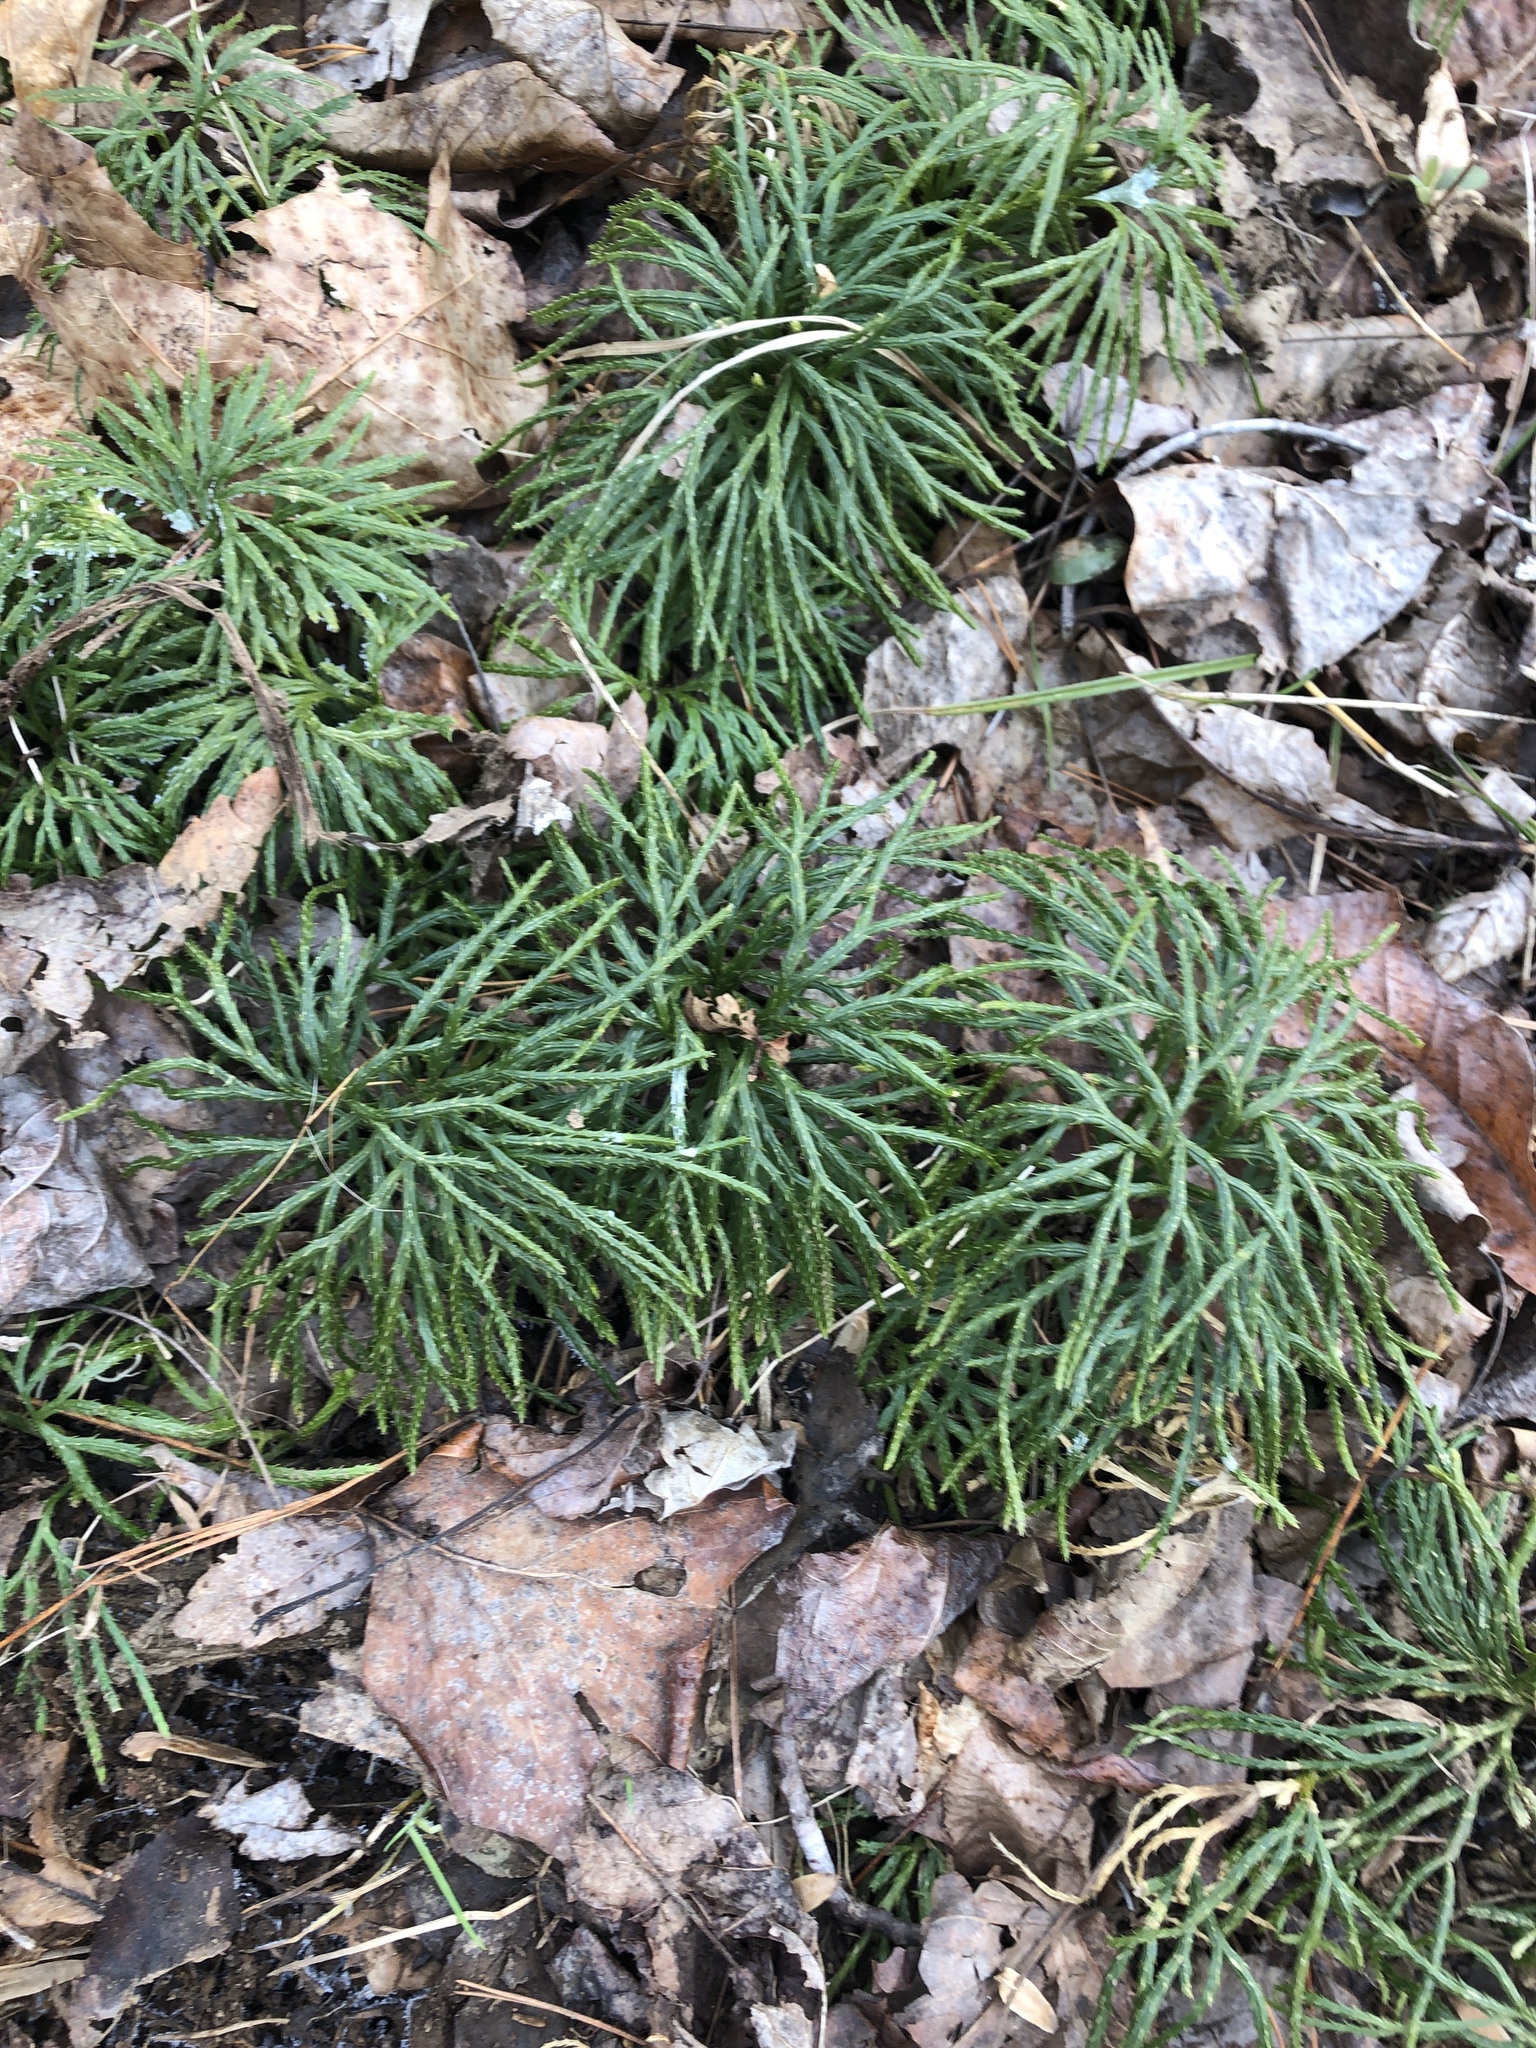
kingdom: Plantae
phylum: Tracheophyta
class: Lycopodiopsida
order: Lycopodiales
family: Lycopodiaceae
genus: Diphasiastrum
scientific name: Diphasiastrum digitatum
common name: Southern running-pine
